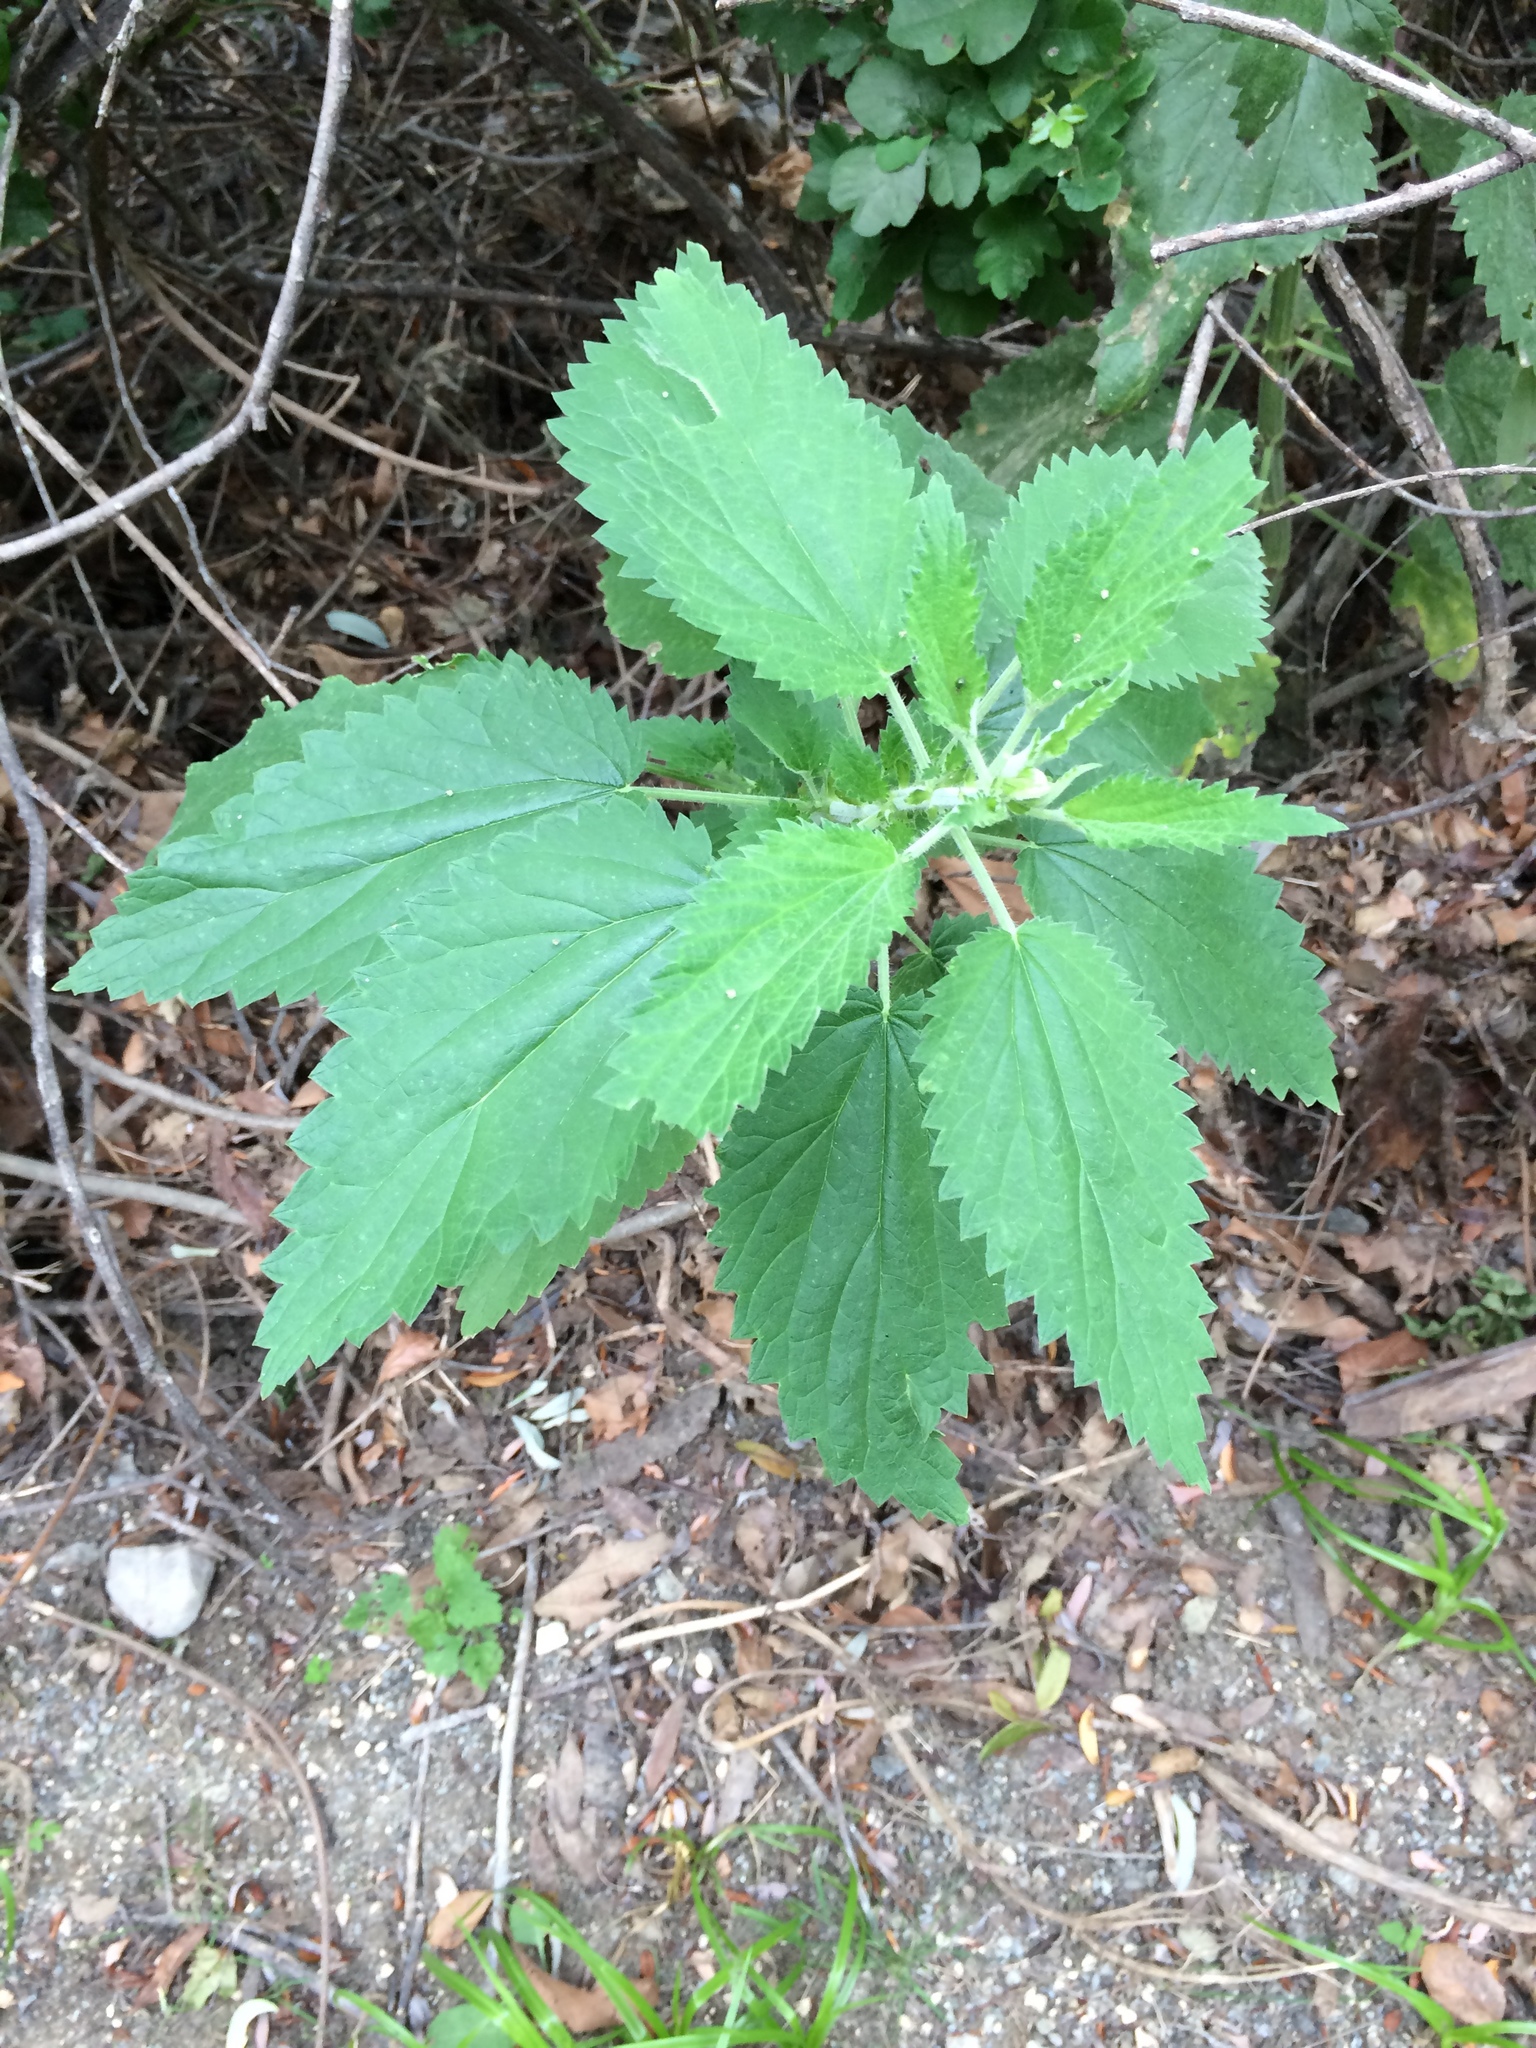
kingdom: Plantae
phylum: Tracheophyta
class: Magnoliopsida
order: Rosales
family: Urticaceae
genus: Urtica
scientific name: Urtica dioica
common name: Common nettle
